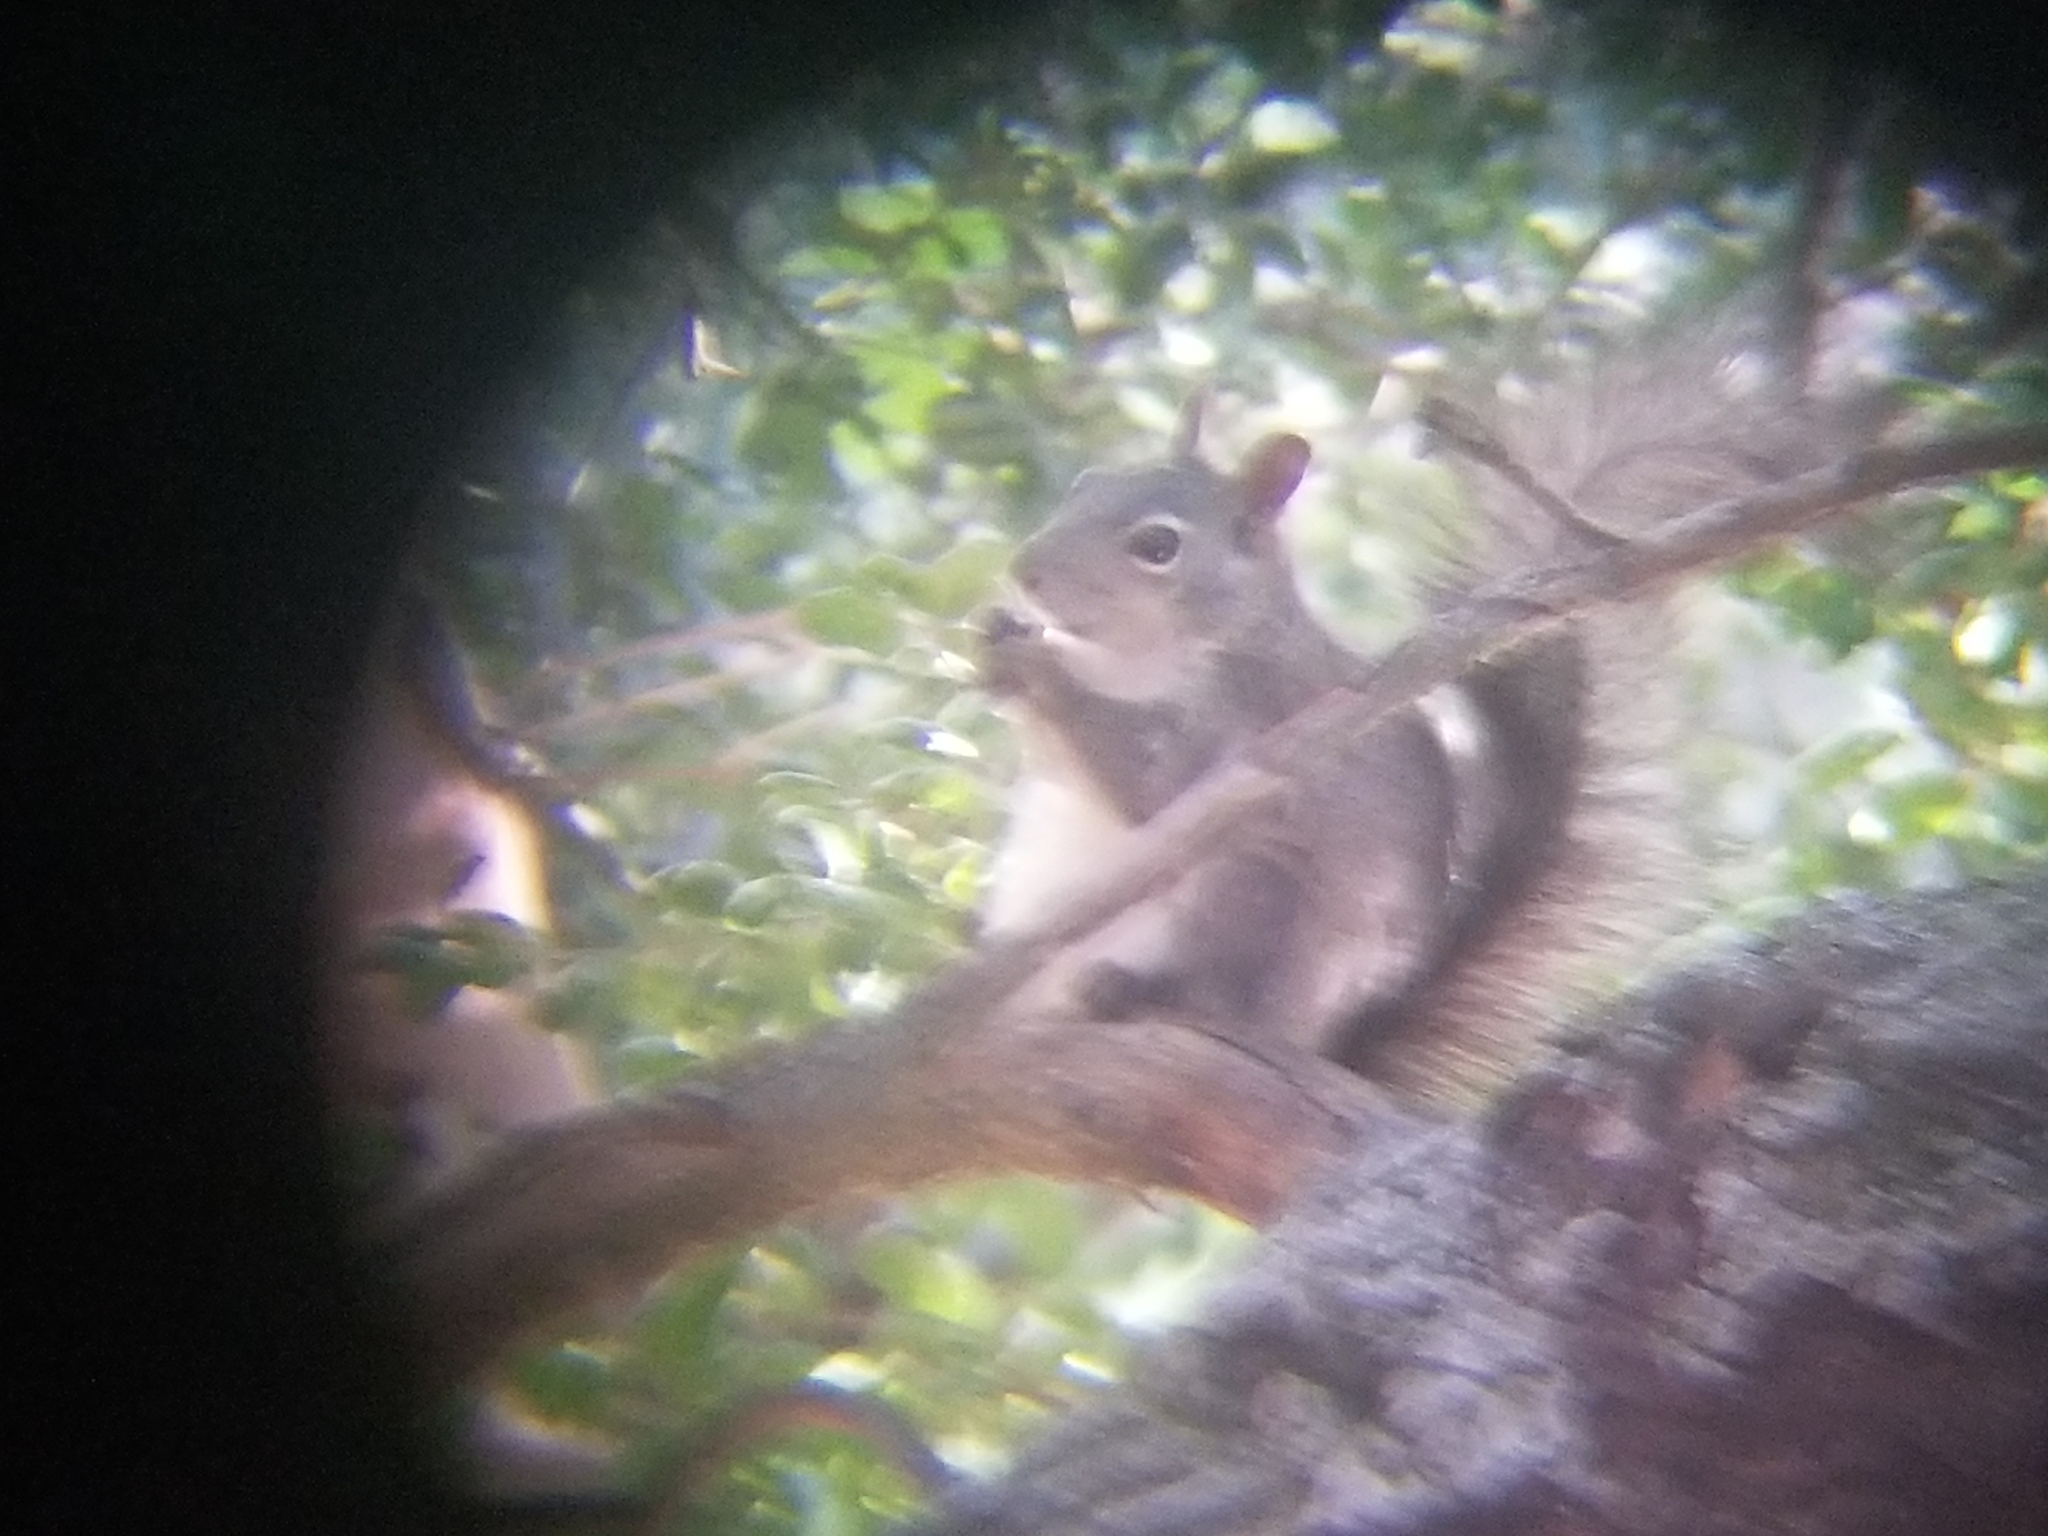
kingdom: Animalia
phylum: Chordata
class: Mammalia
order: Rodentia
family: Sciuridae
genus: Sciurus
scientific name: Sciurus griseus
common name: Western gray squirrel
